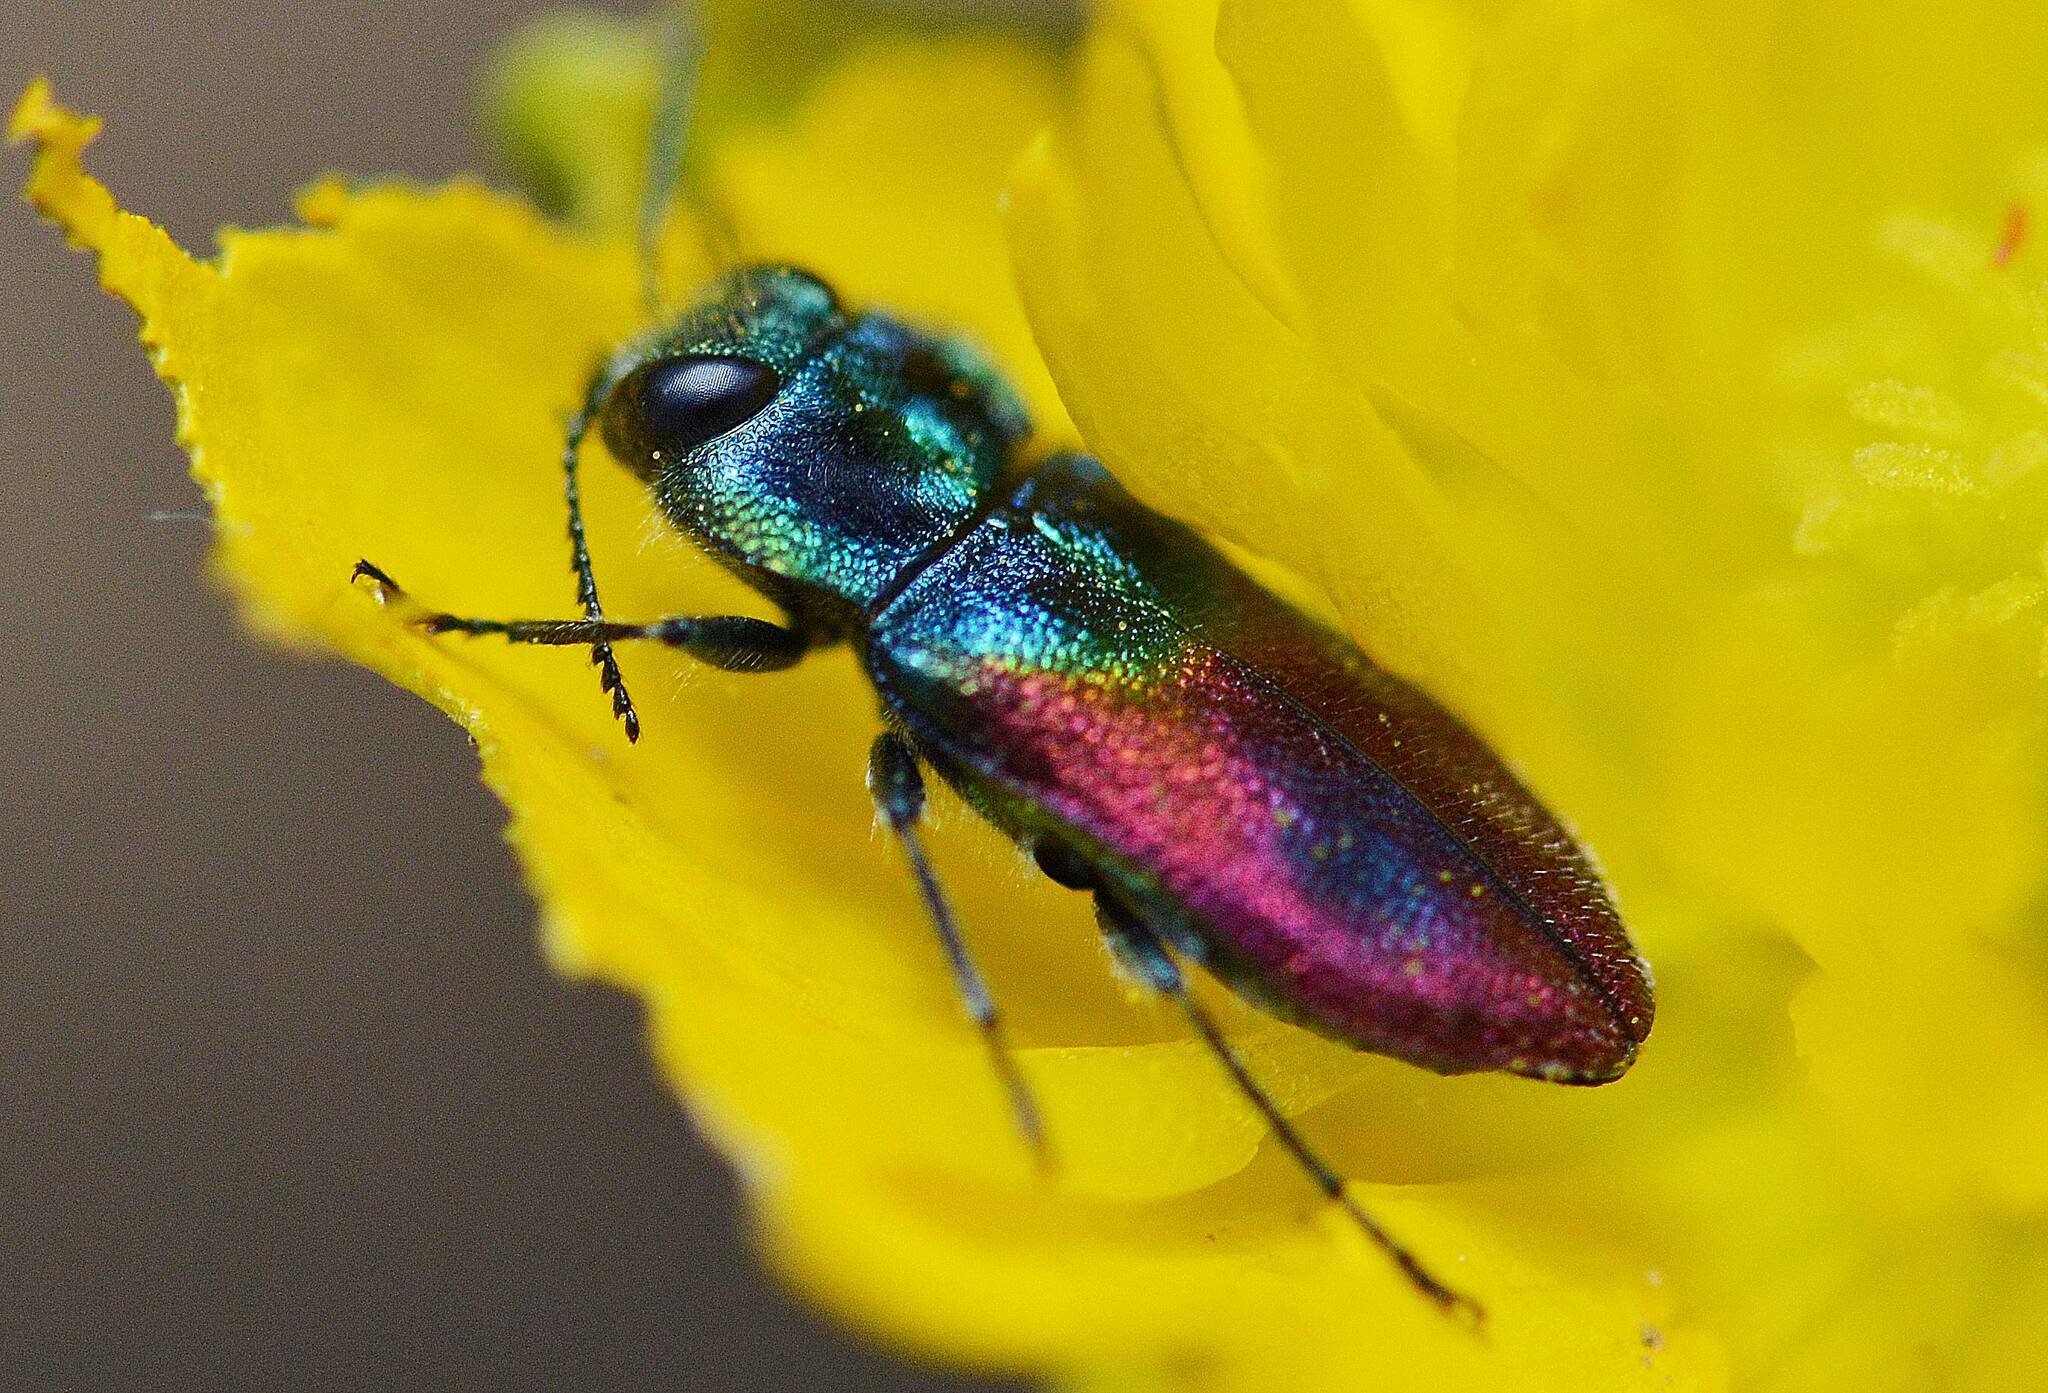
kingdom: Animalia
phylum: Arthropoda
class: Insecta
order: Coleoptera
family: Buprestidae
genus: Anthaxia
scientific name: Anthaxia salicis
